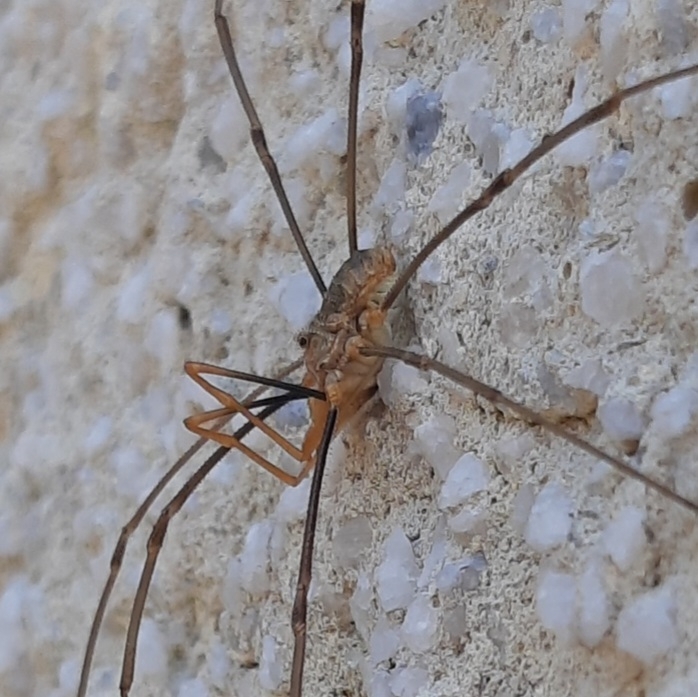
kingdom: Animalia
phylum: Arthropoda
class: Arachnida
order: Opiliones
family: Phalangiidae
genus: Phalangium
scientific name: Phalangium opilio
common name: Daddy longleg
